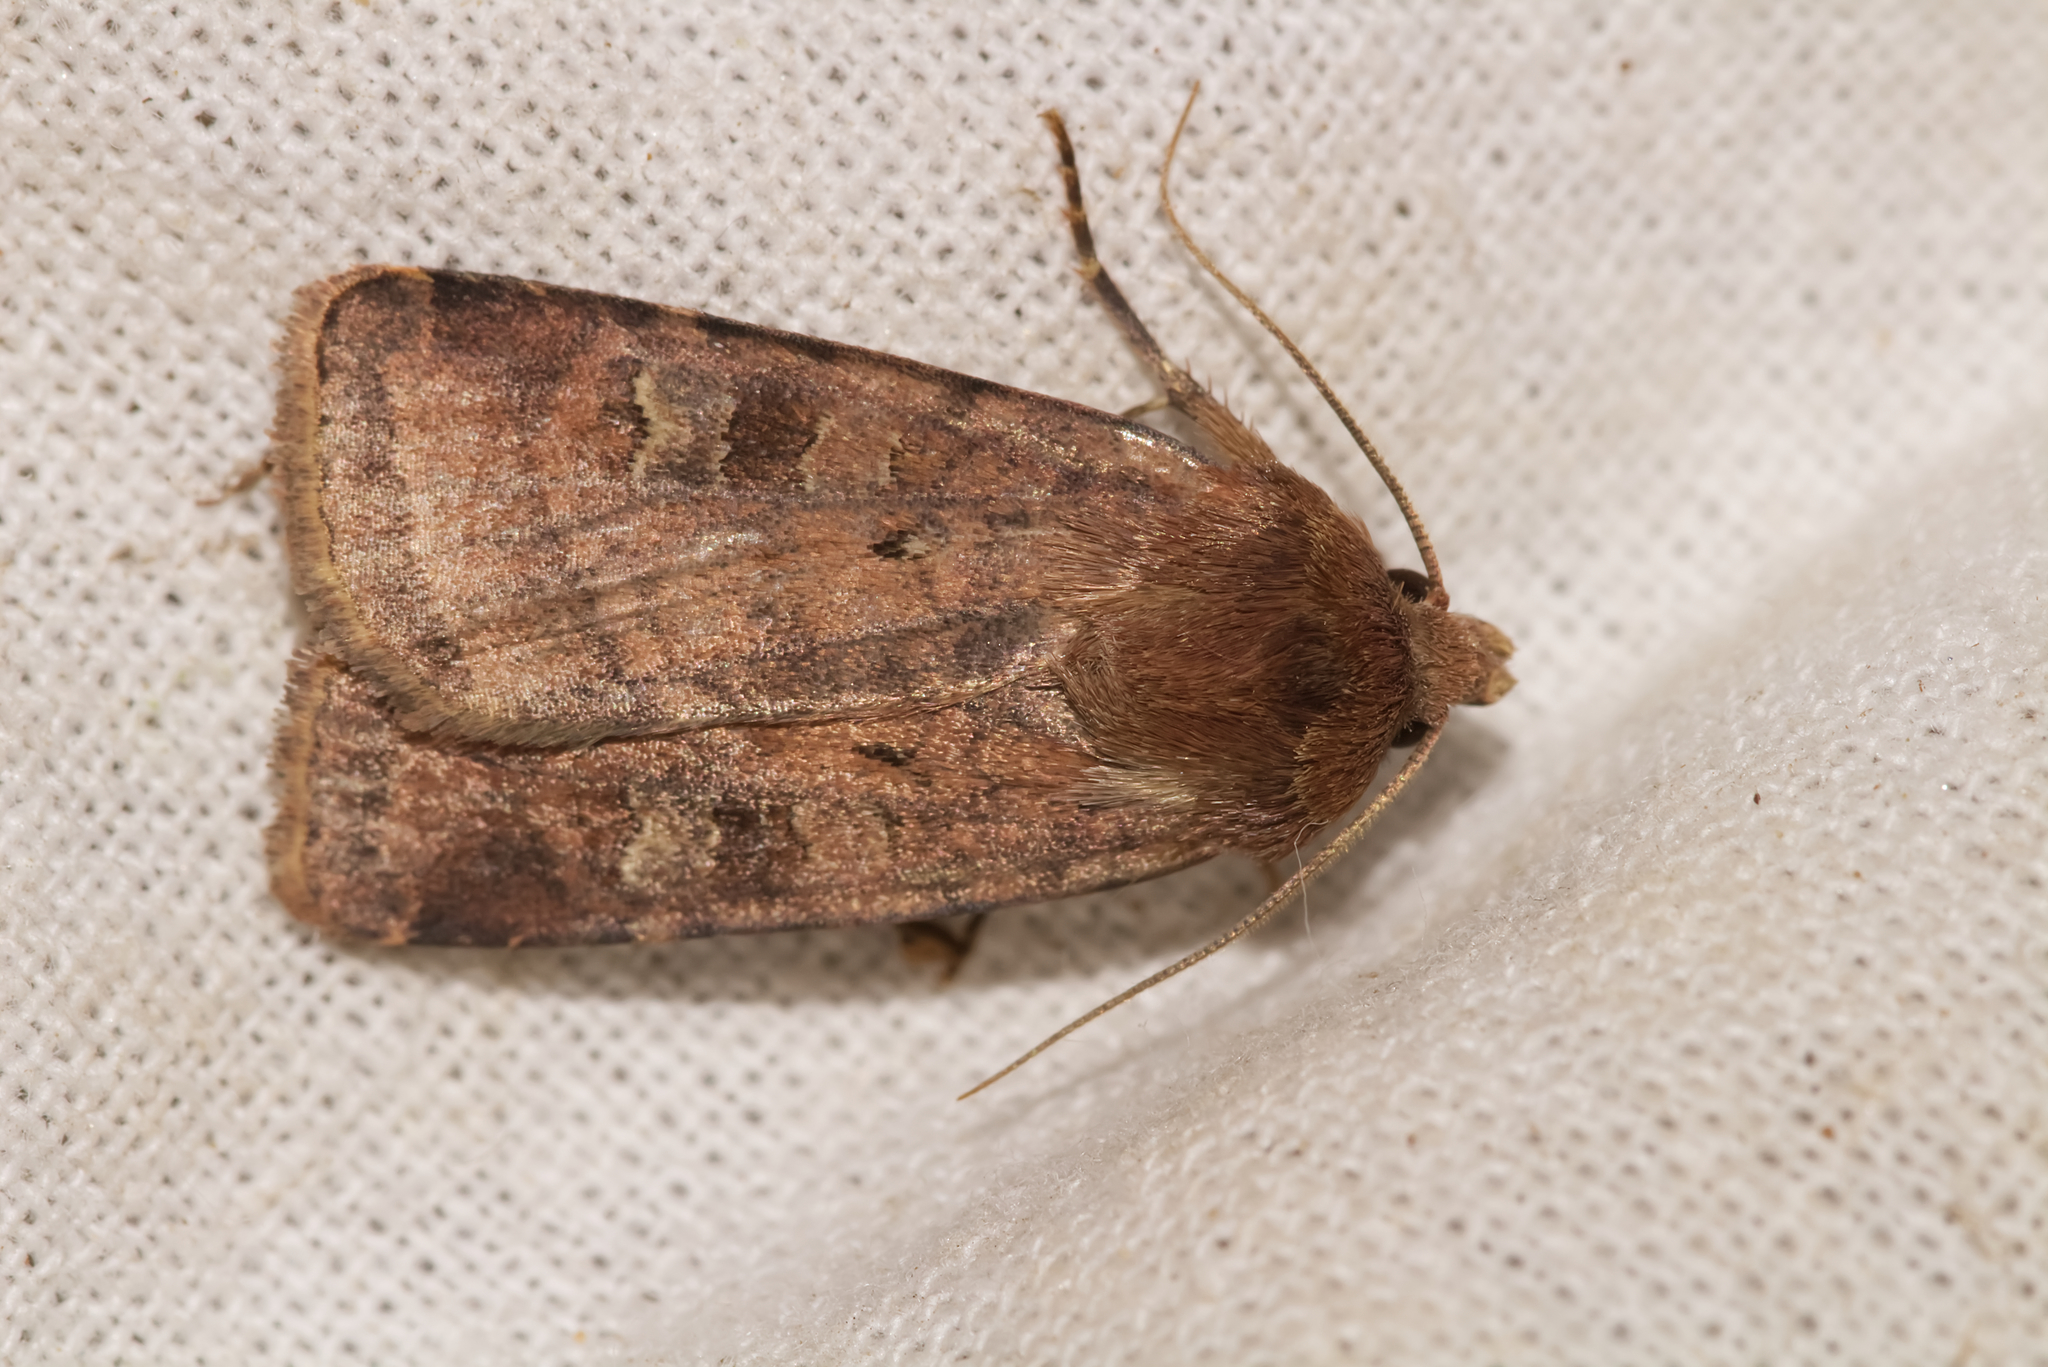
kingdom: Animalia
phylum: Arthropoda
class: Insecta
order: Lepidoptera
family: Noctuidae
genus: Diarsia
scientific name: Diarsia rubi
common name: Small square-spot
